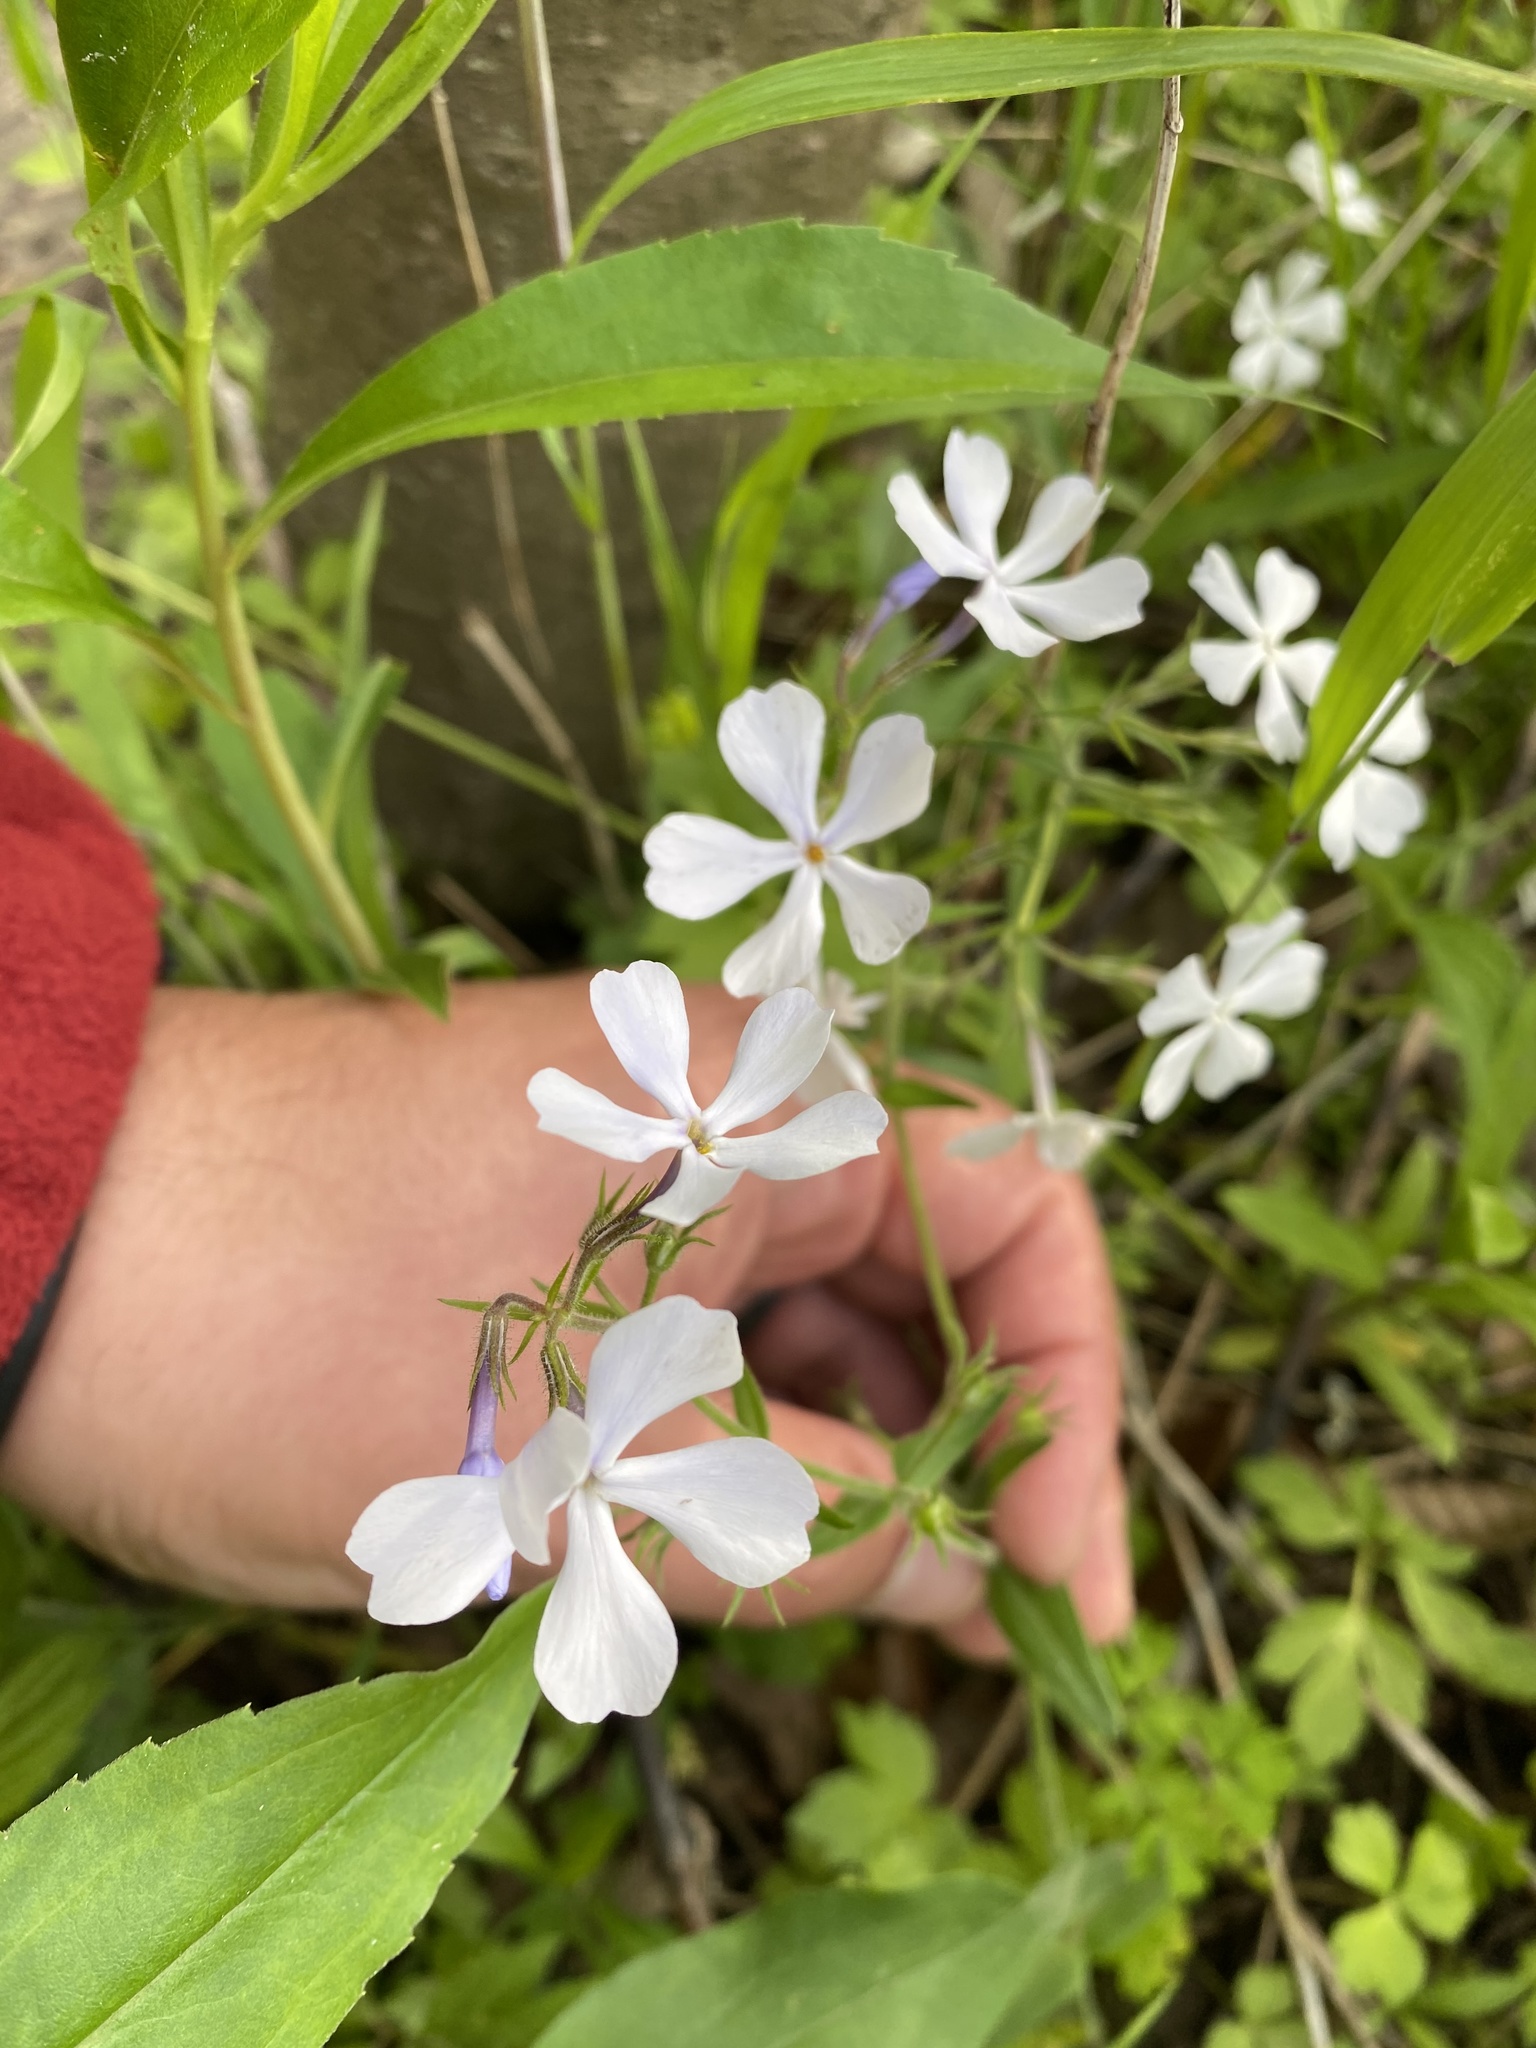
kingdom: Plantae
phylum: Tracheophyta
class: Magnoliopsida
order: Ericales
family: Polemoniaceae
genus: Phlox
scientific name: Phlox divaricata
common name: Blue phlox
